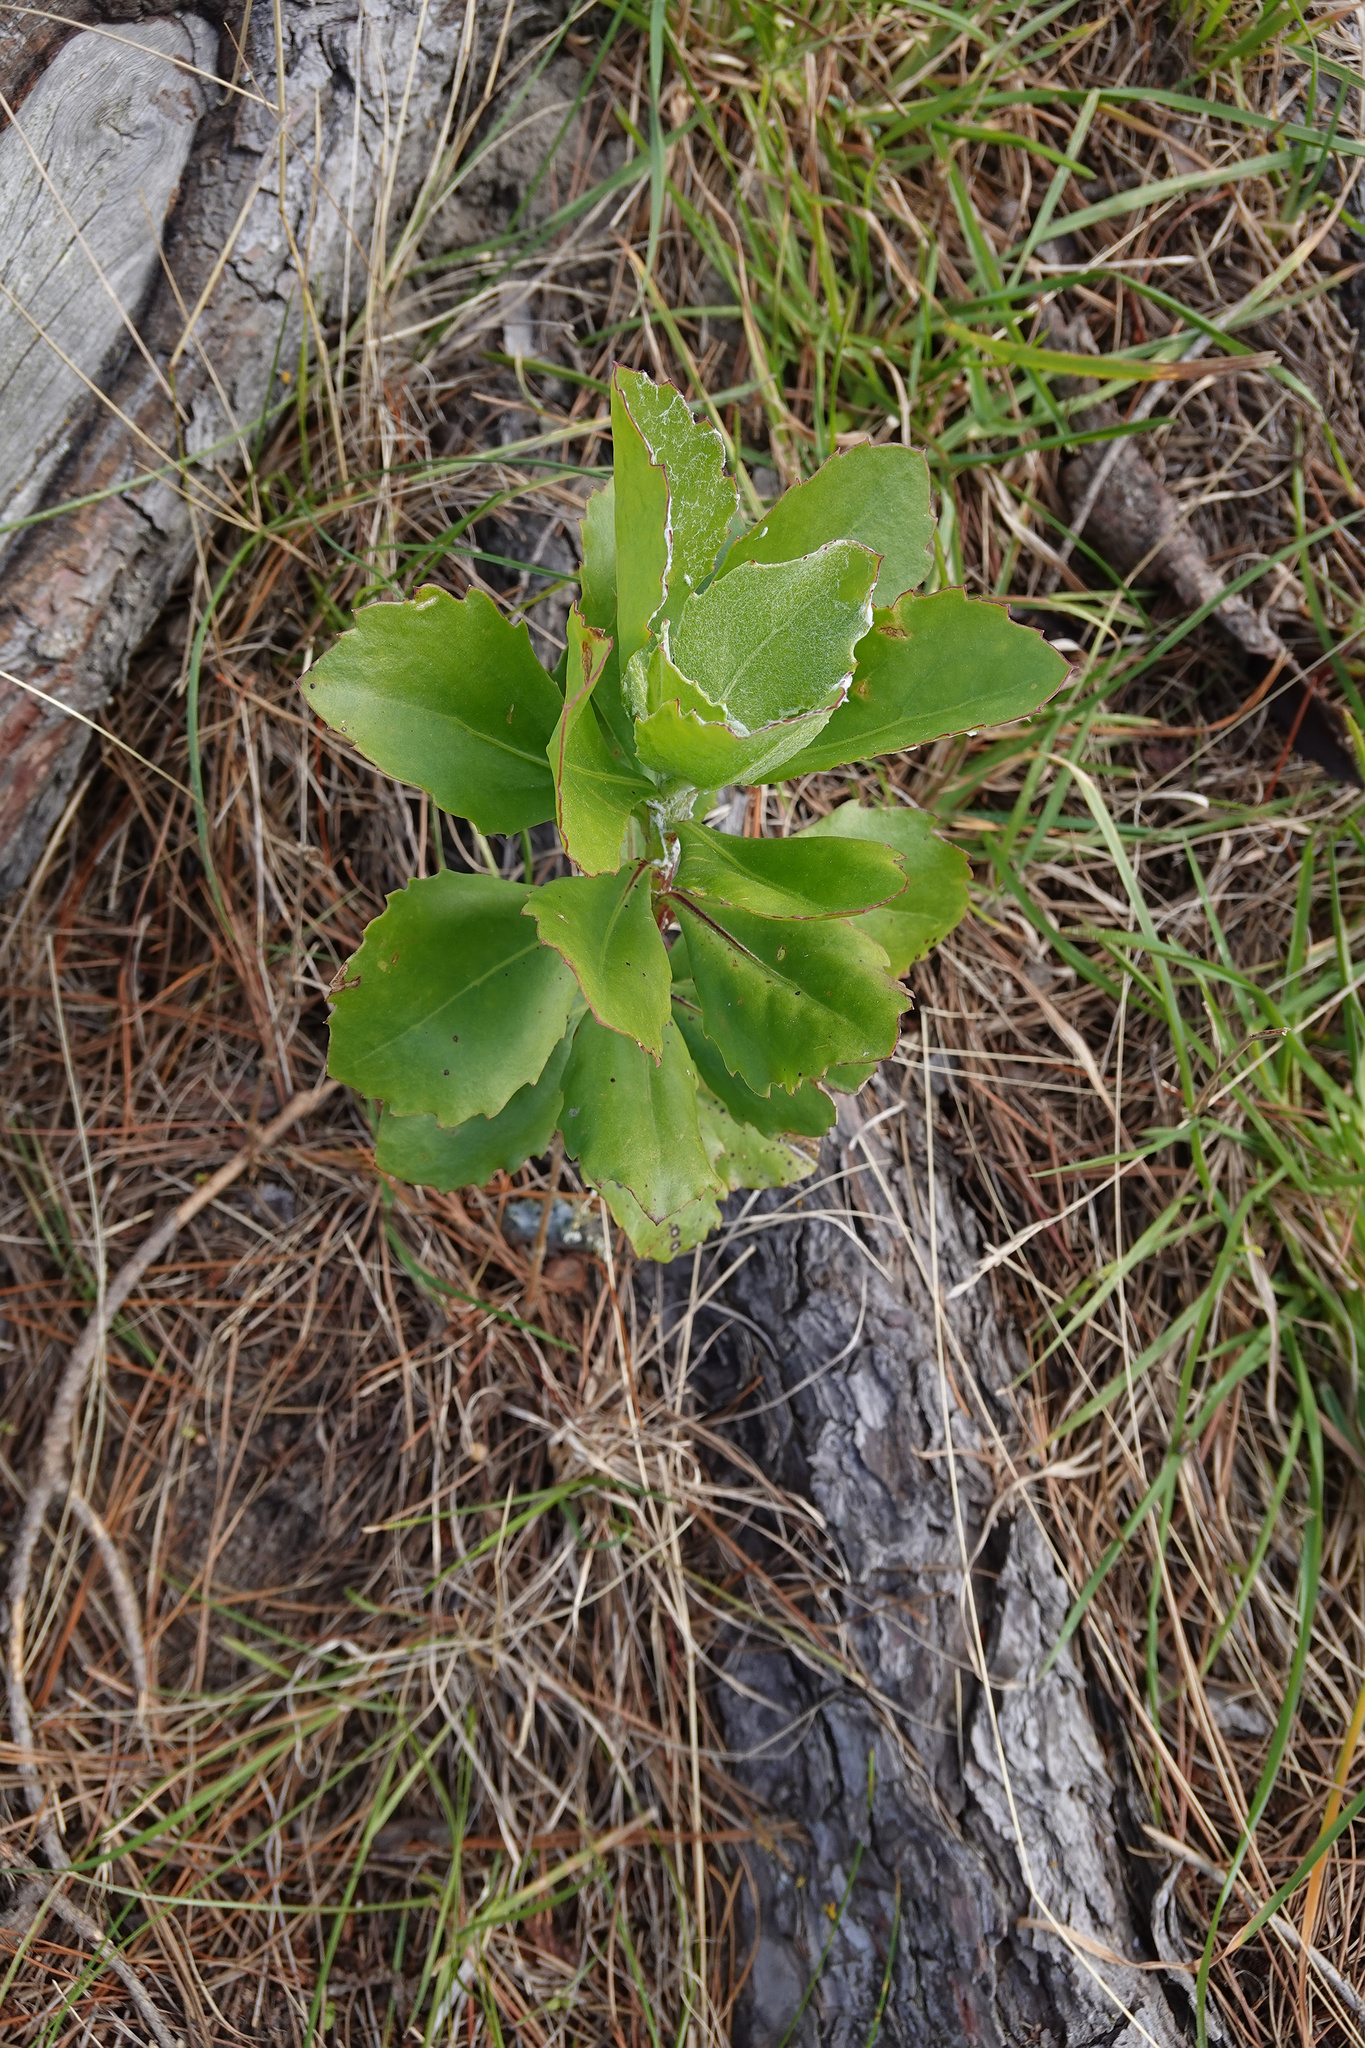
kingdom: Plantae
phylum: Tracheophyta
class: Magnoliopsida
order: Asterales
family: Asteraceae
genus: Osteospermum
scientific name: Osteospermum moniliferum
